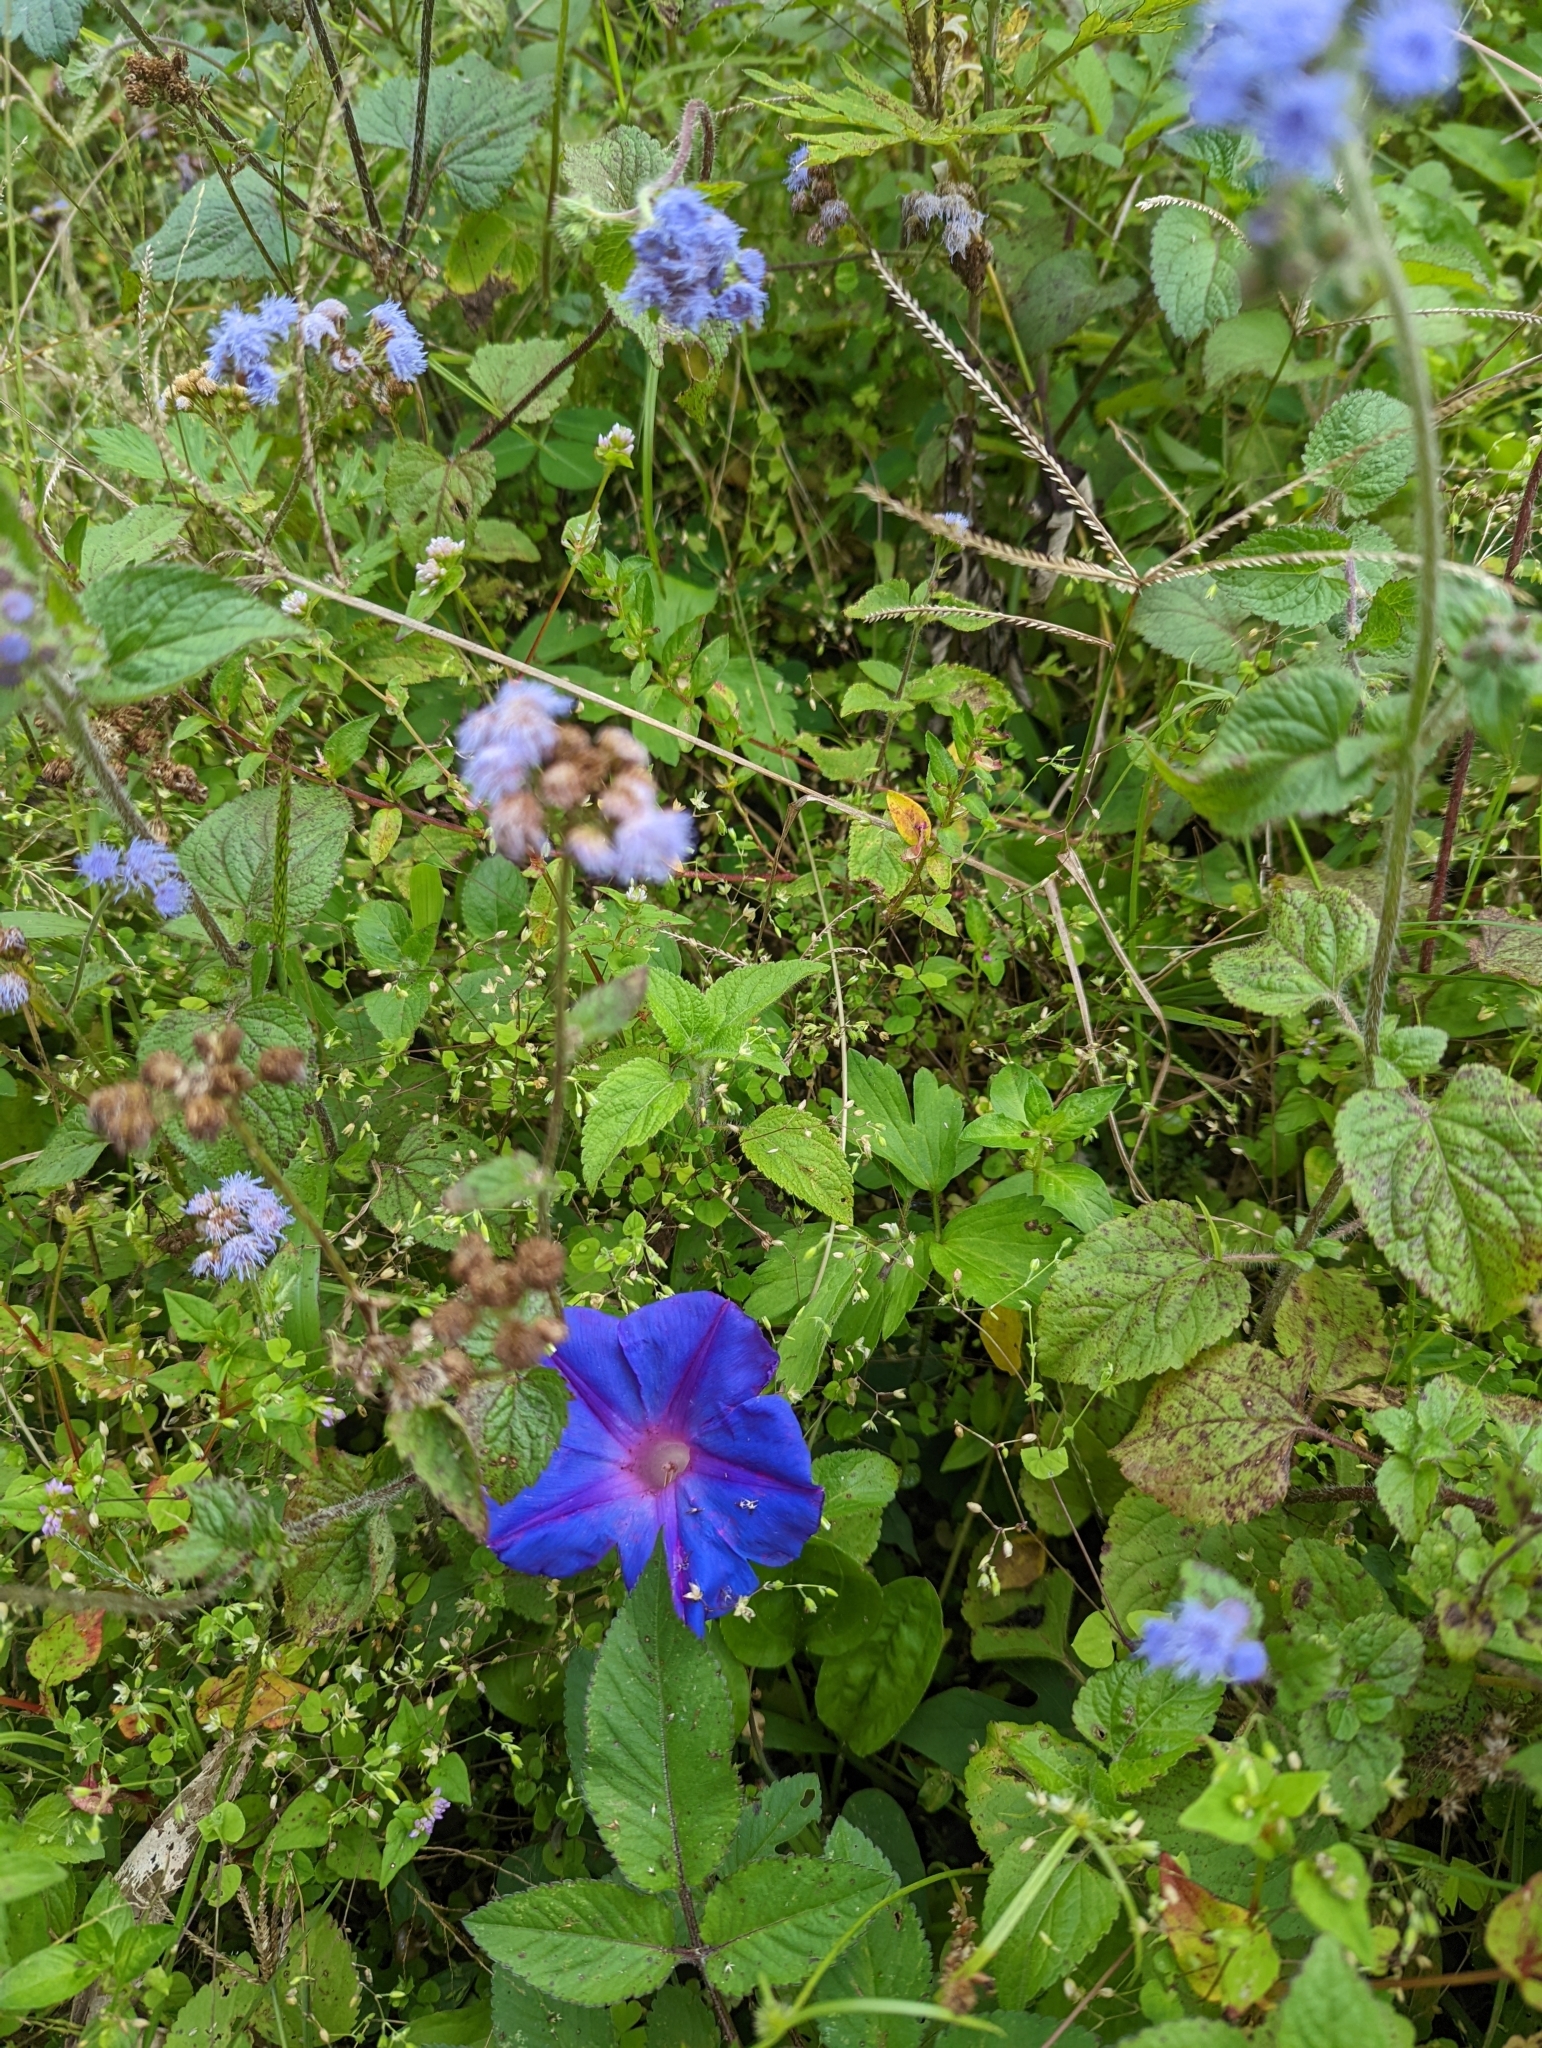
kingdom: Plantae
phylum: Tracheophyta
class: Magnoliopsida
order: Solanales
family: Convolvulaceae
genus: Ipomoea
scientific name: Ipomoea indica
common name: Blue dawnflower
